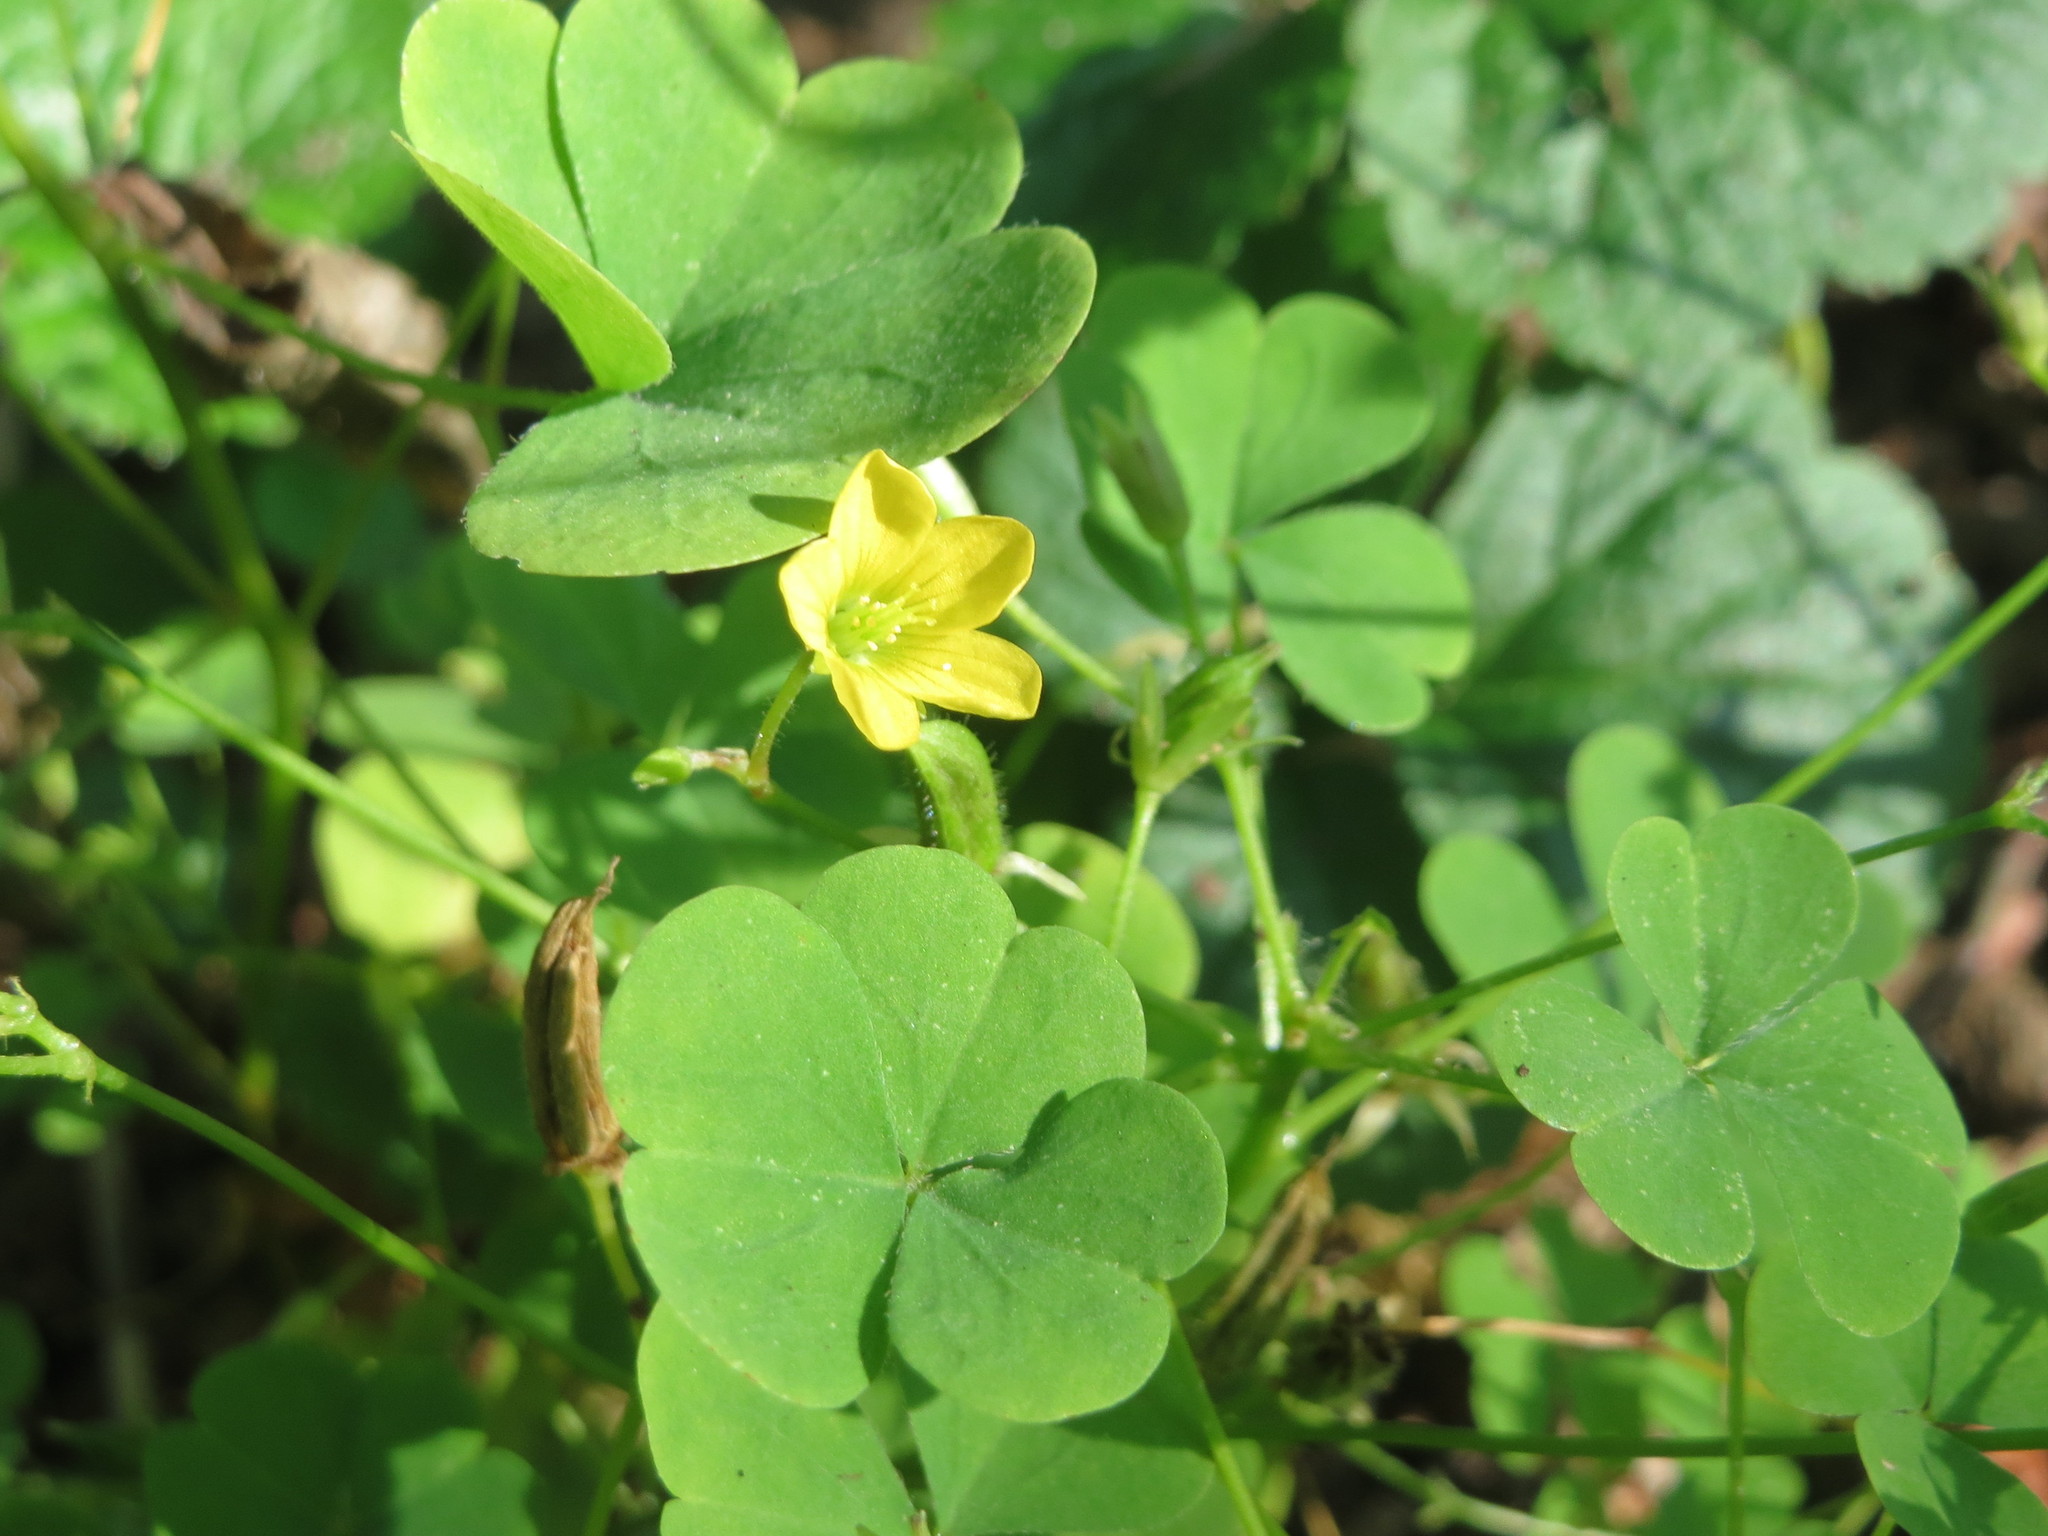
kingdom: Plantae
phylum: Tracheophyta
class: Magnoliopsida
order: Oxalidales
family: Oxalidaceae
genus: Oxalis
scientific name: Oxalis stricta
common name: Upright yellow-sorrel
